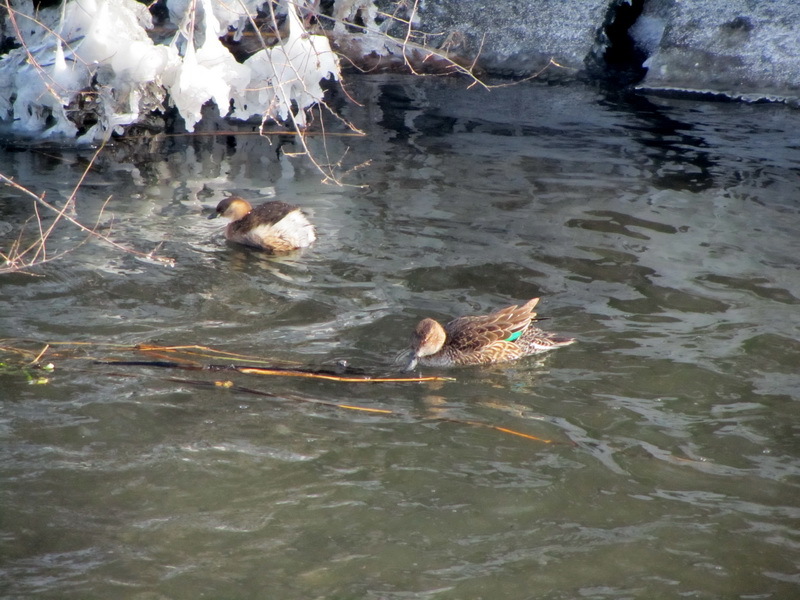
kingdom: Animalia
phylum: Chordata
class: Aves
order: Anseriformes
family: Anatidae
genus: Anas
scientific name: Anas crecca
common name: Eurasian teal
